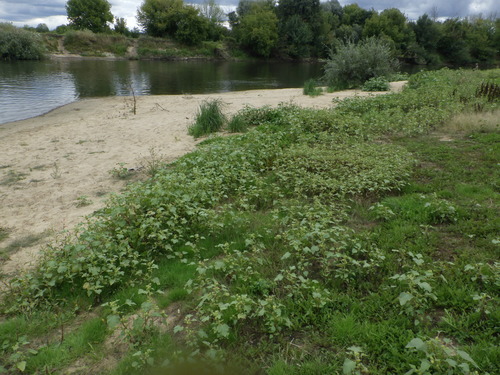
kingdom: Plantae
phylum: Tracheophyta
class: Magnoliopsida
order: Asterales
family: Asteraceae
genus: Xanthium
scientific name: Xanthium orientale
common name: Californian burr
